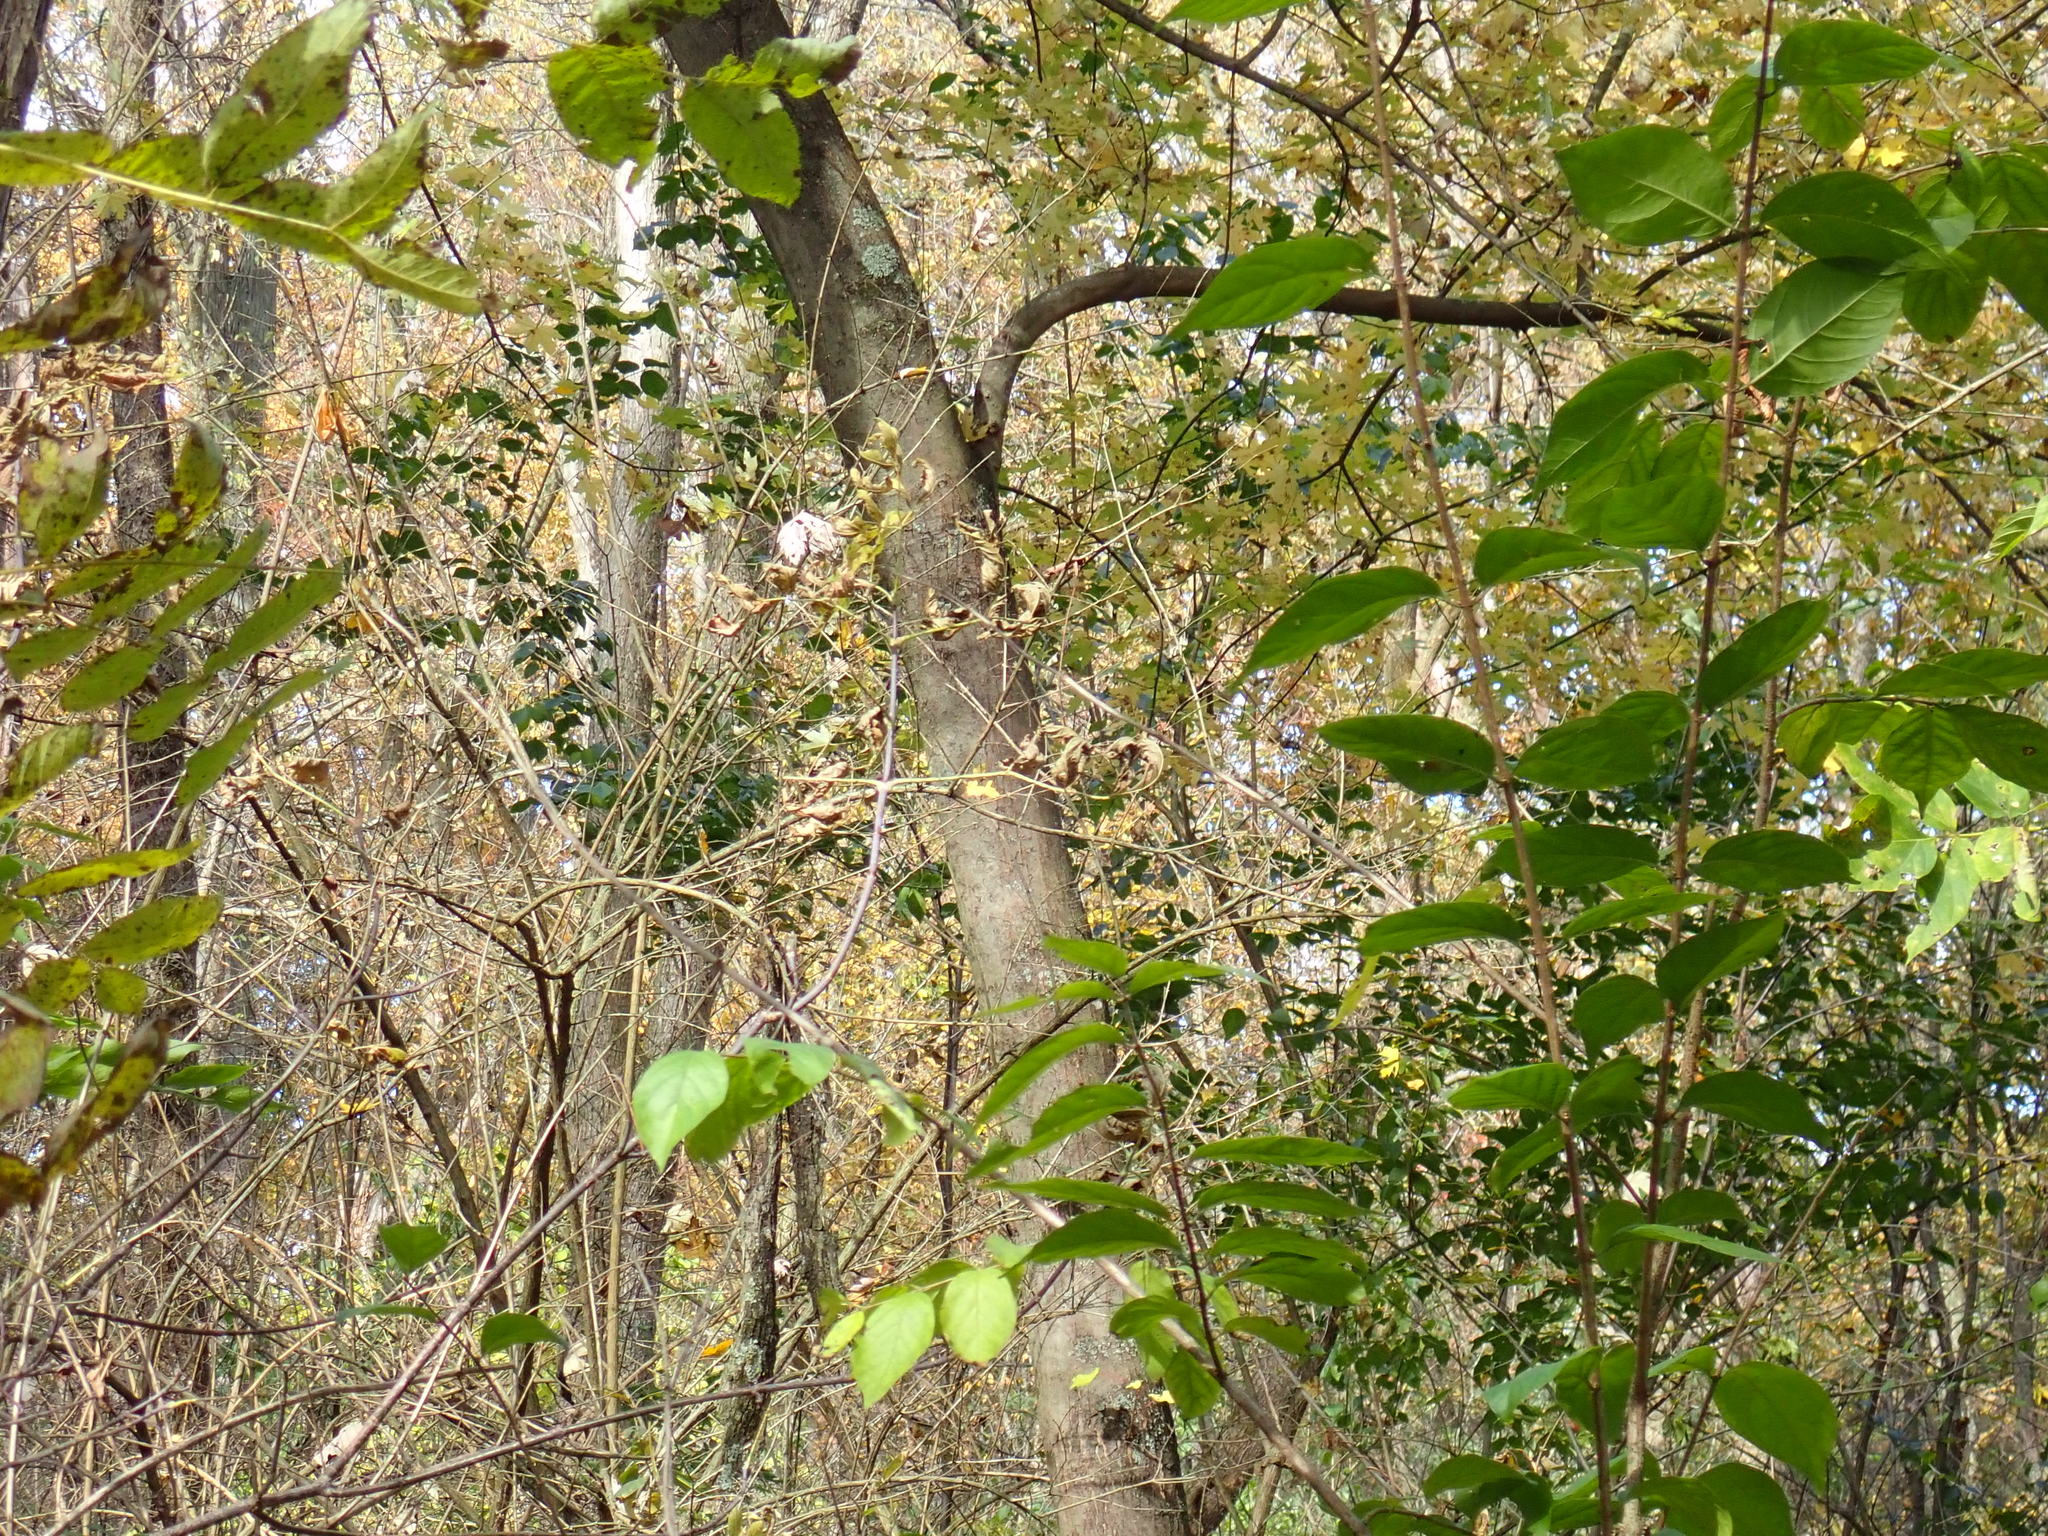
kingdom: Plantae
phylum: Tracheophyta
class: Magnoliopsida
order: Sapindales
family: Sapindaceae
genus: Acer
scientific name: Acer saccharinum
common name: Silver maple
